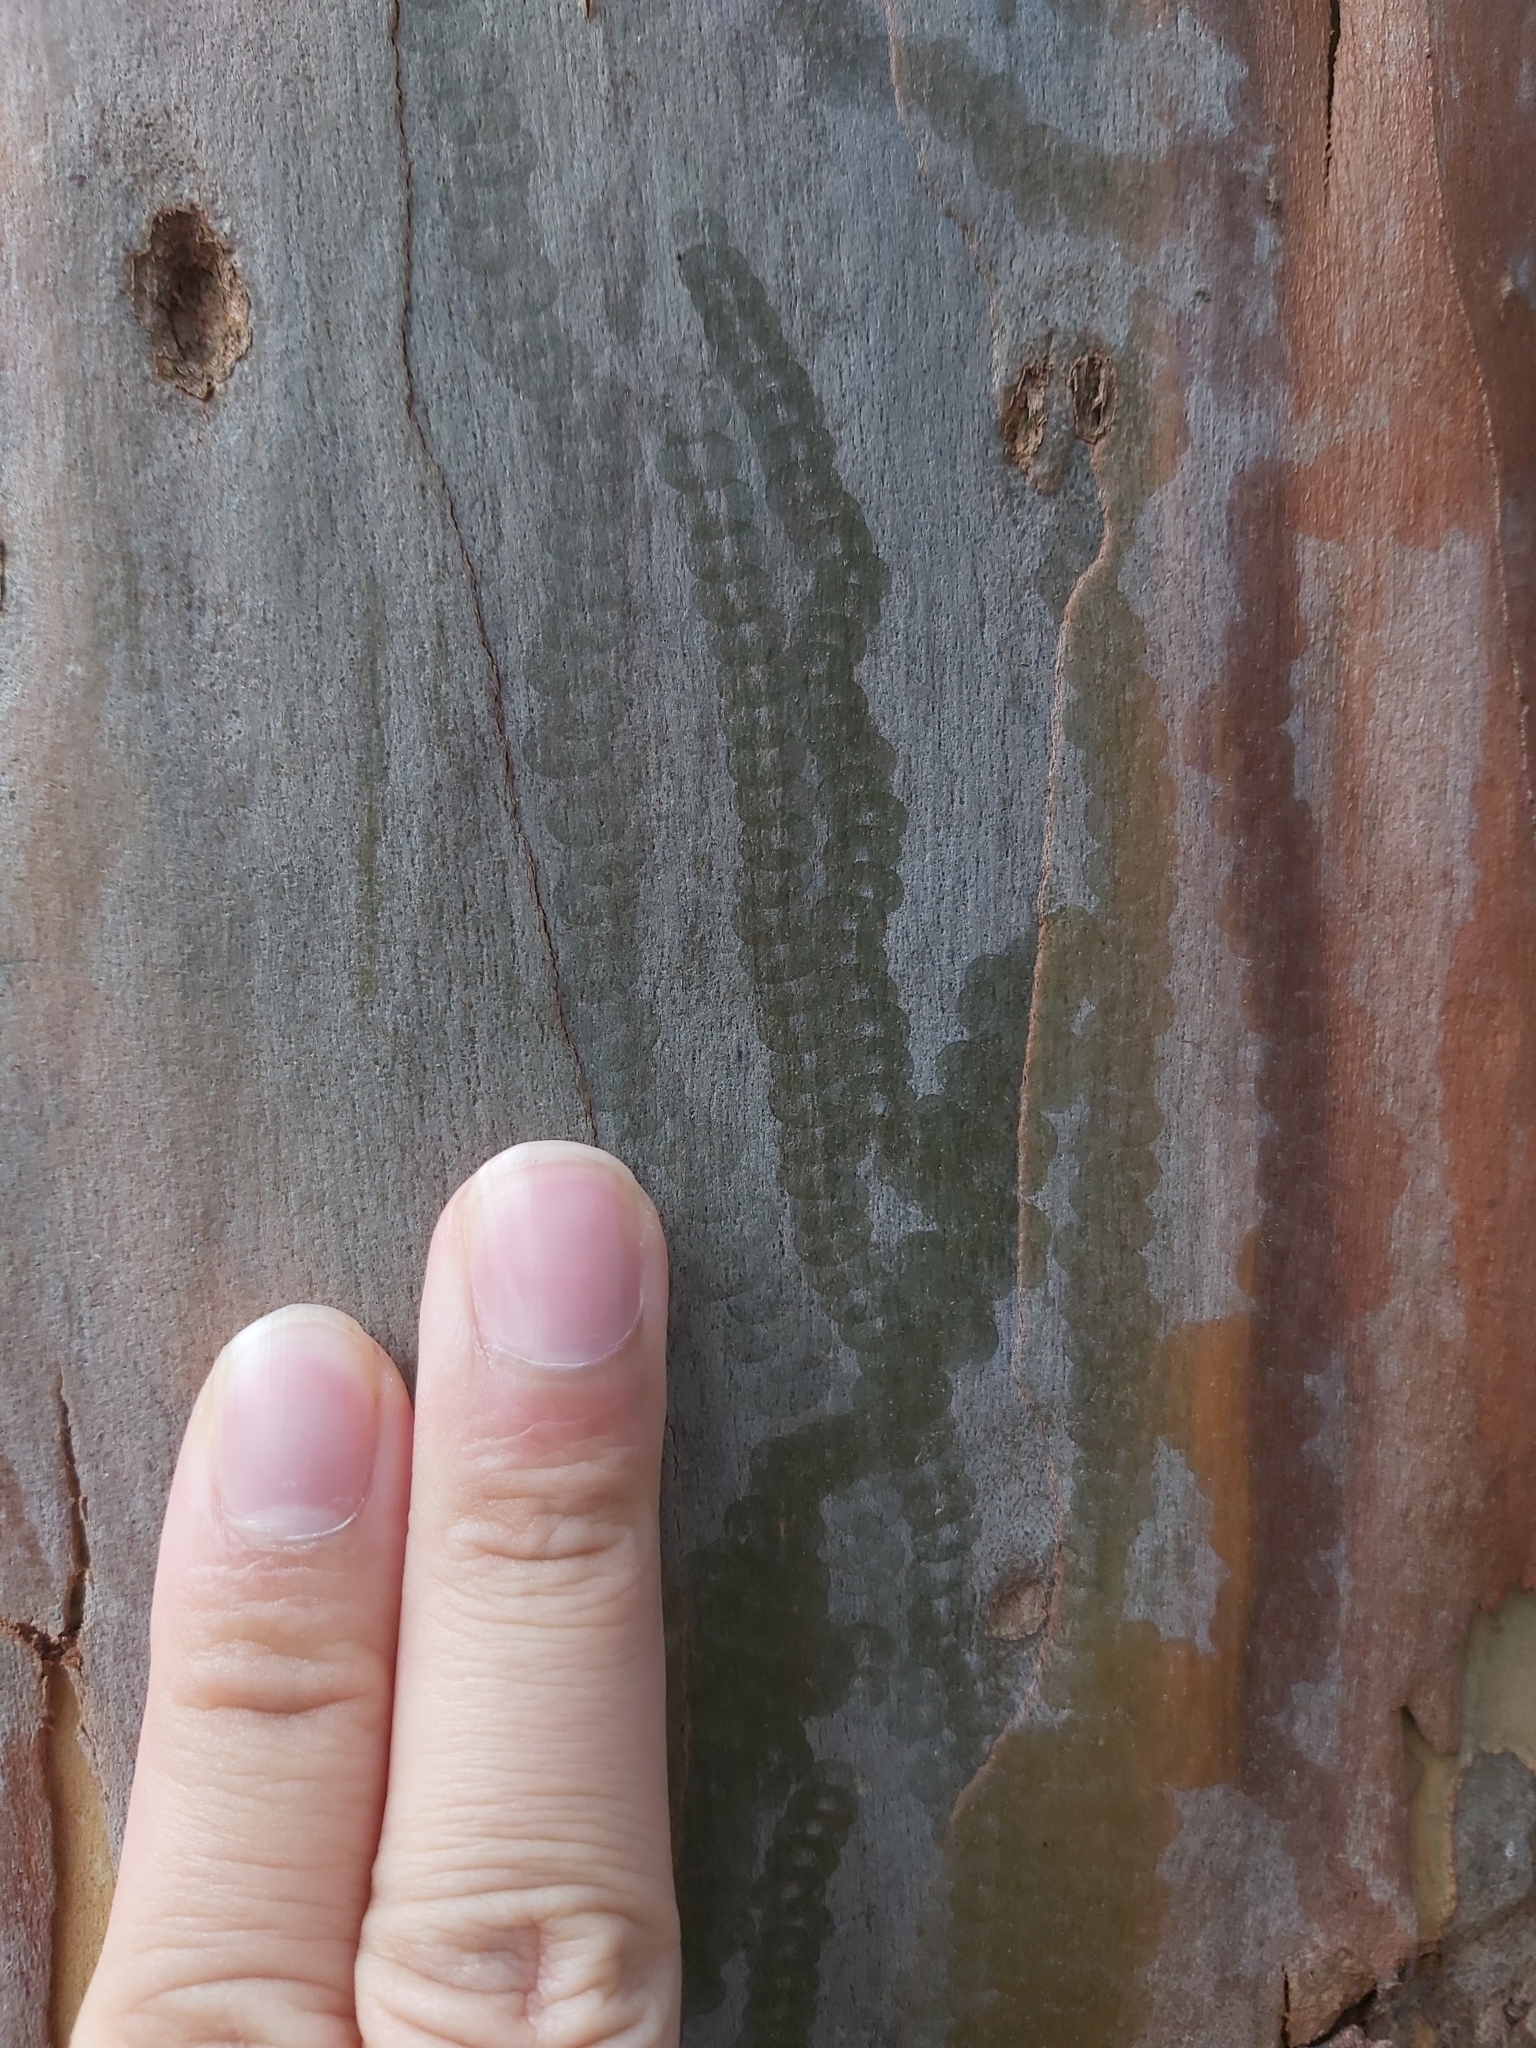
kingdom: Animalia
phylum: Mollusca
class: Gastropoda
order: Stylommatophora
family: Athoracophoridae
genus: Triboniophorus
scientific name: Triboniophorus graeffei
